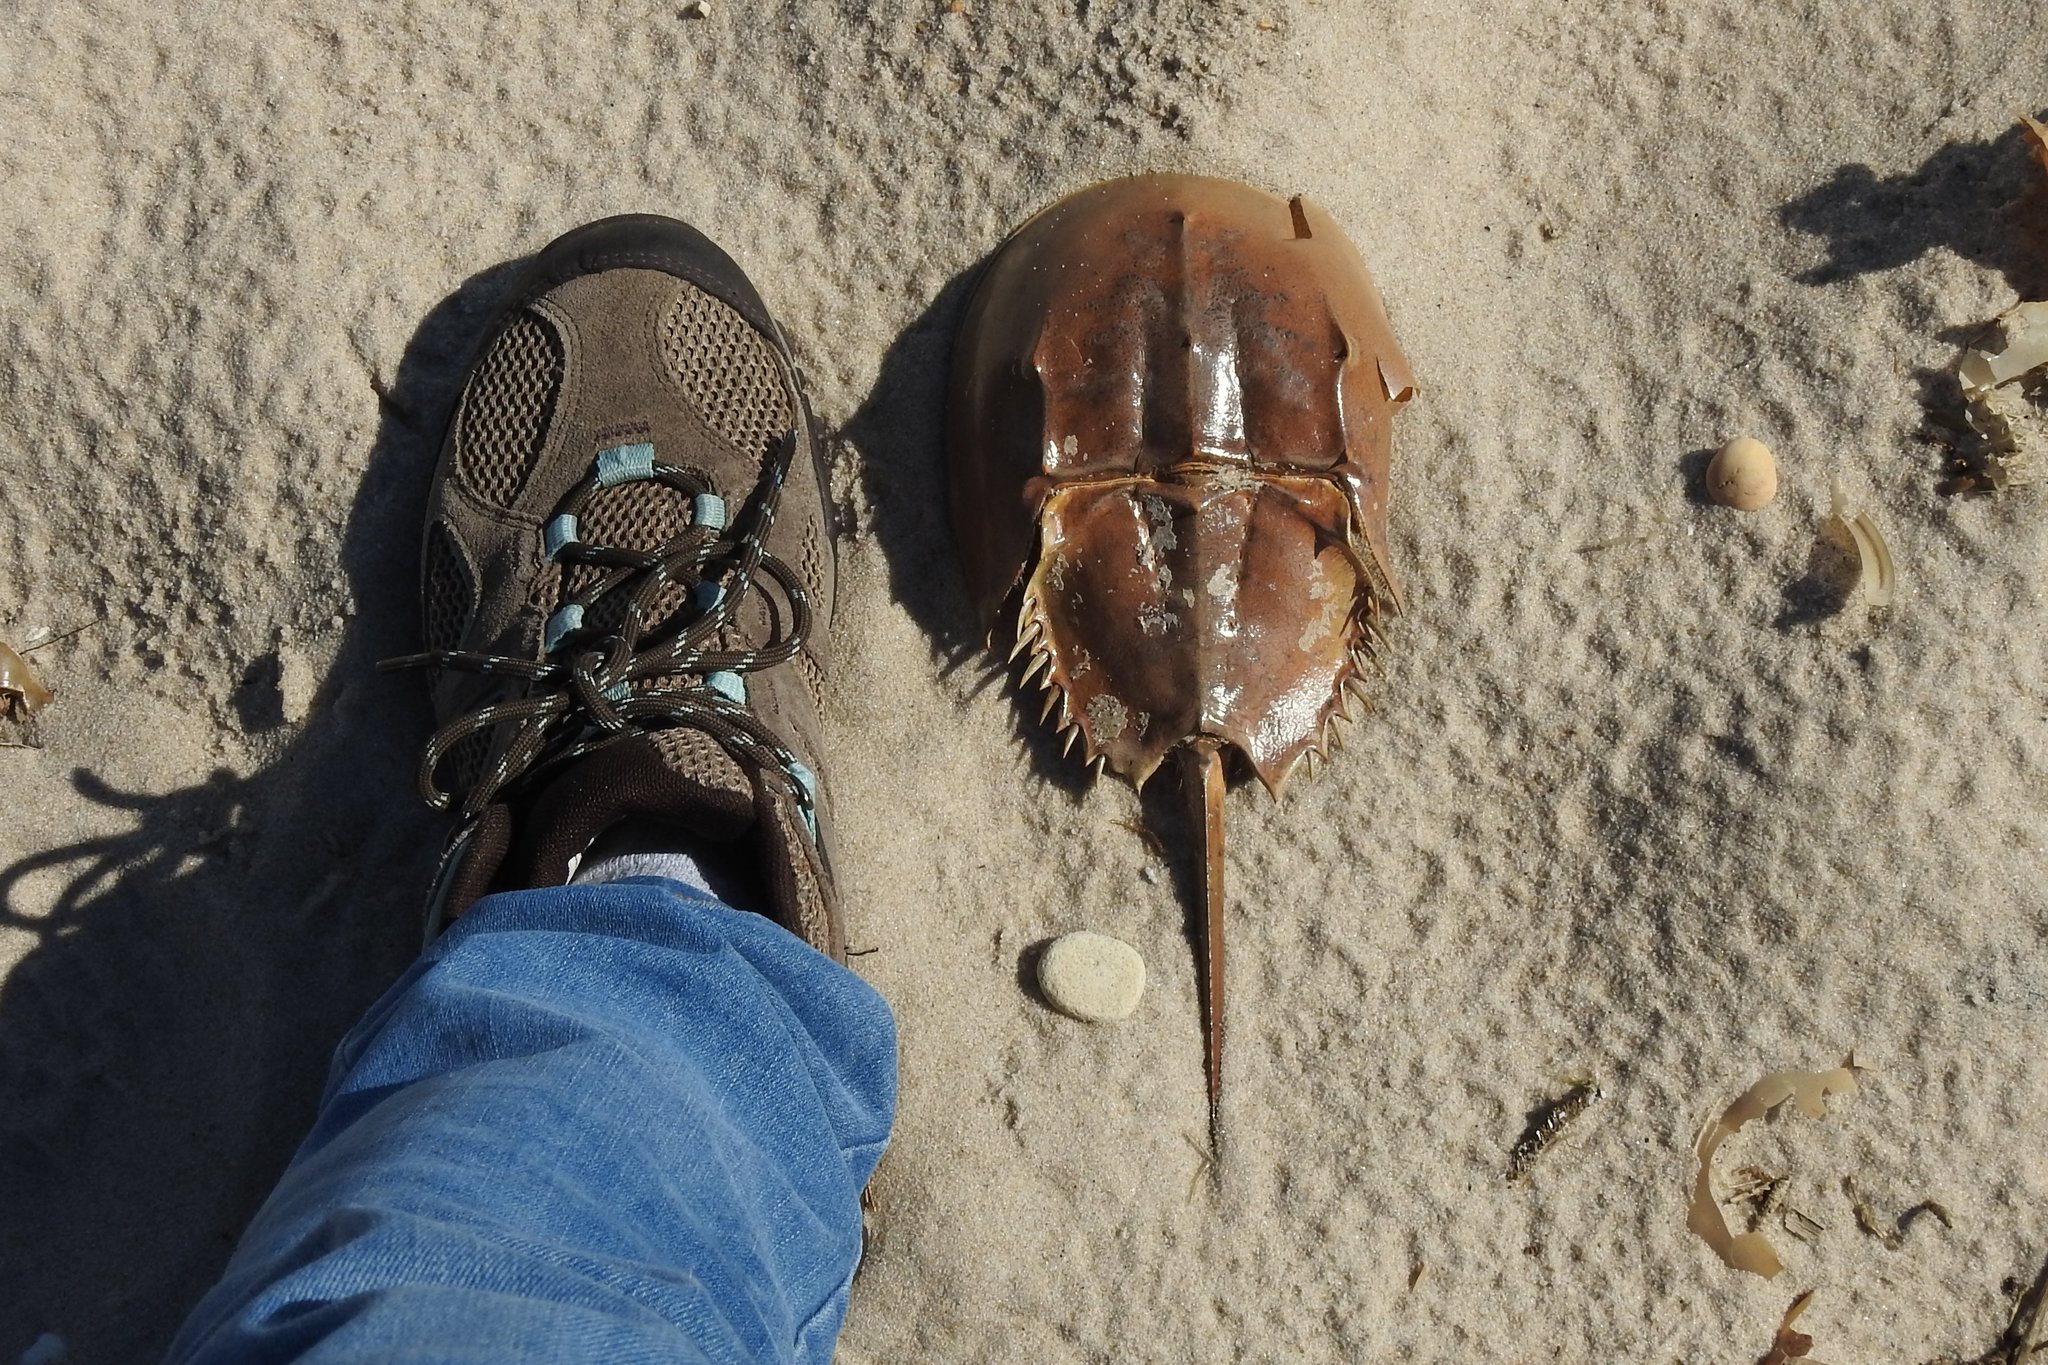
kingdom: Animalia
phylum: Arthropoda
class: Merostomata
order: Xiphosurida
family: Limulidae
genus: Limulus
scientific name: Limulus polyphemus
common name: Horseshoe crab
